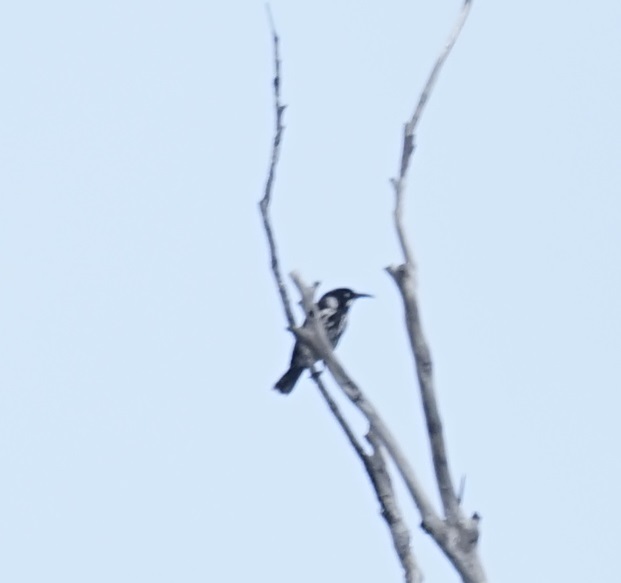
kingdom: Animalia
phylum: Chordata
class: Aves
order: Passeriformes
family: Meliphagidae
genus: Phylidonyris
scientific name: Phylidonyris novaehollandiae
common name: New holland honeyeater
